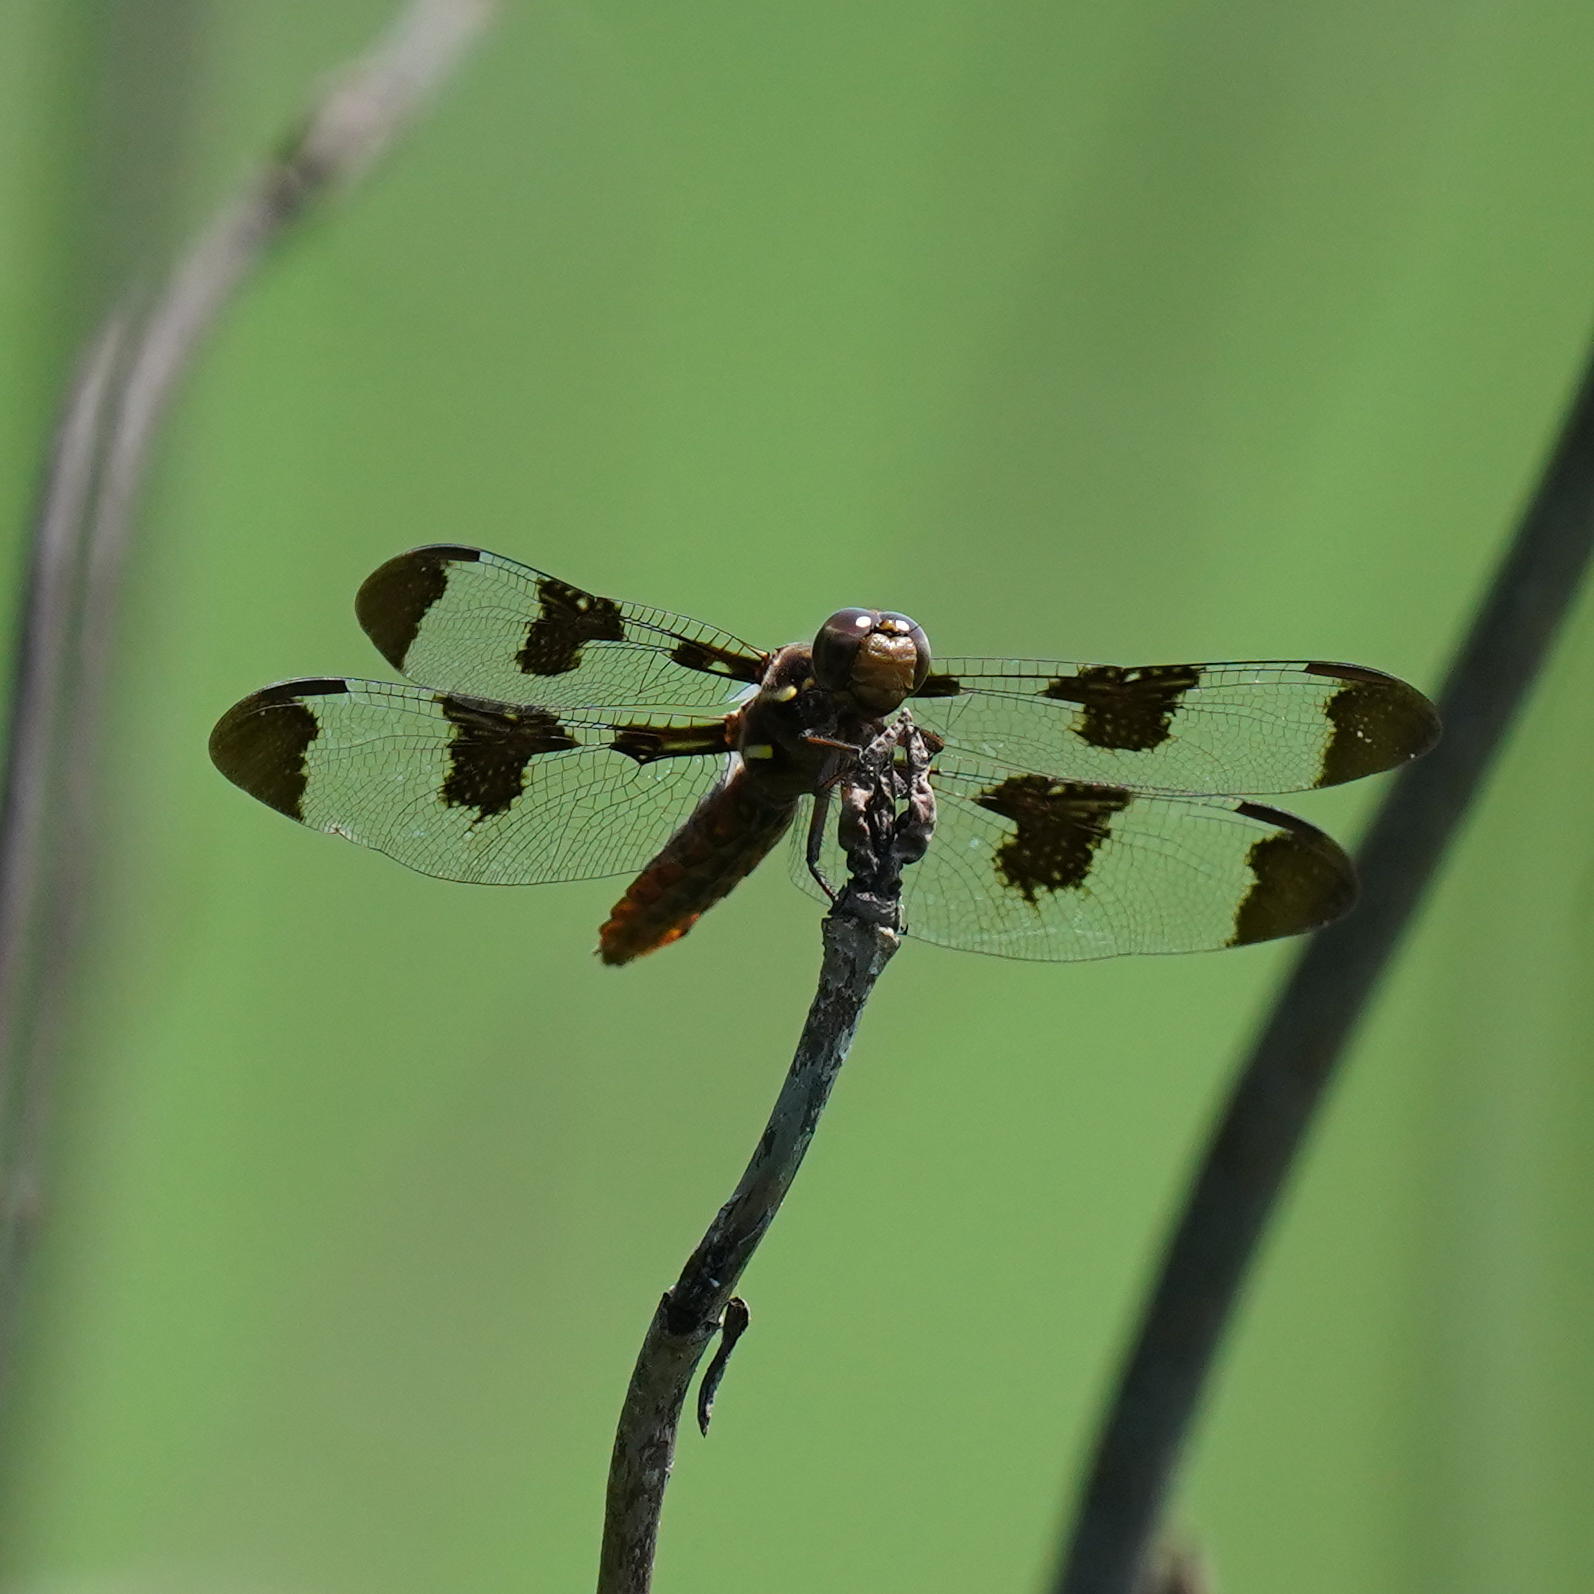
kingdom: Animalia
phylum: Arthropoda
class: Insecta
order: Odonata
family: Libellulidae
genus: Plathemis
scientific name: Plathemis lydia
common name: Common whitetail
